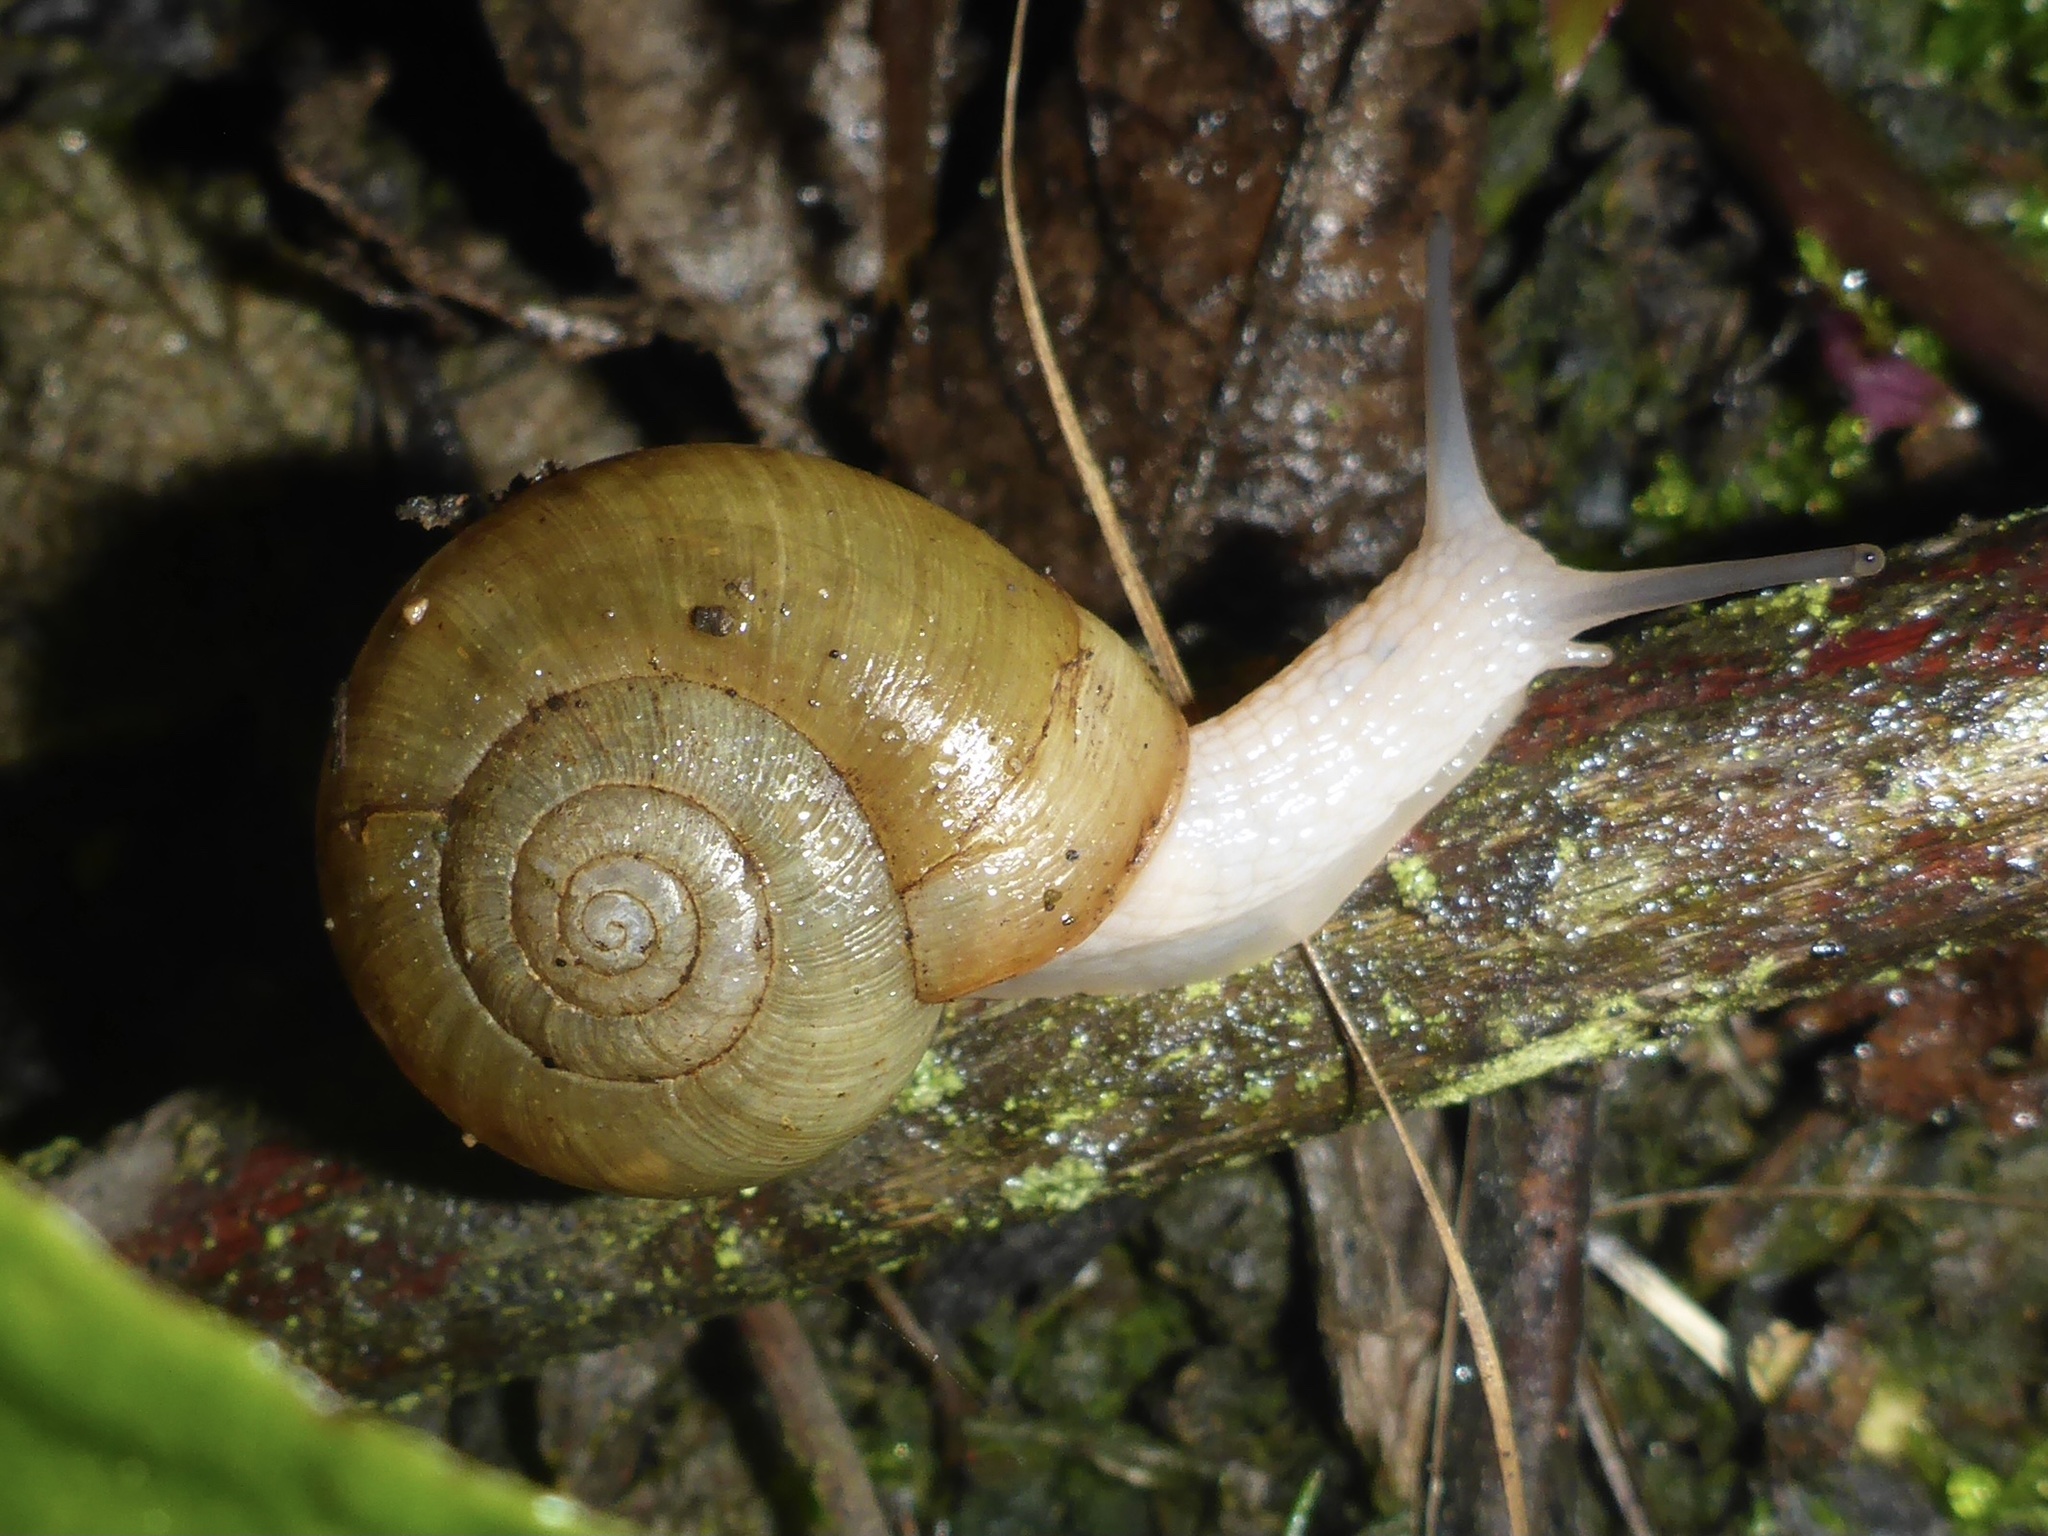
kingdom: Animalia
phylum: Mollusca
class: Gastropoda
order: Stylommatophora
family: Haplotrematidae
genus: Haplotrema
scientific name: Haplotrema minimum
